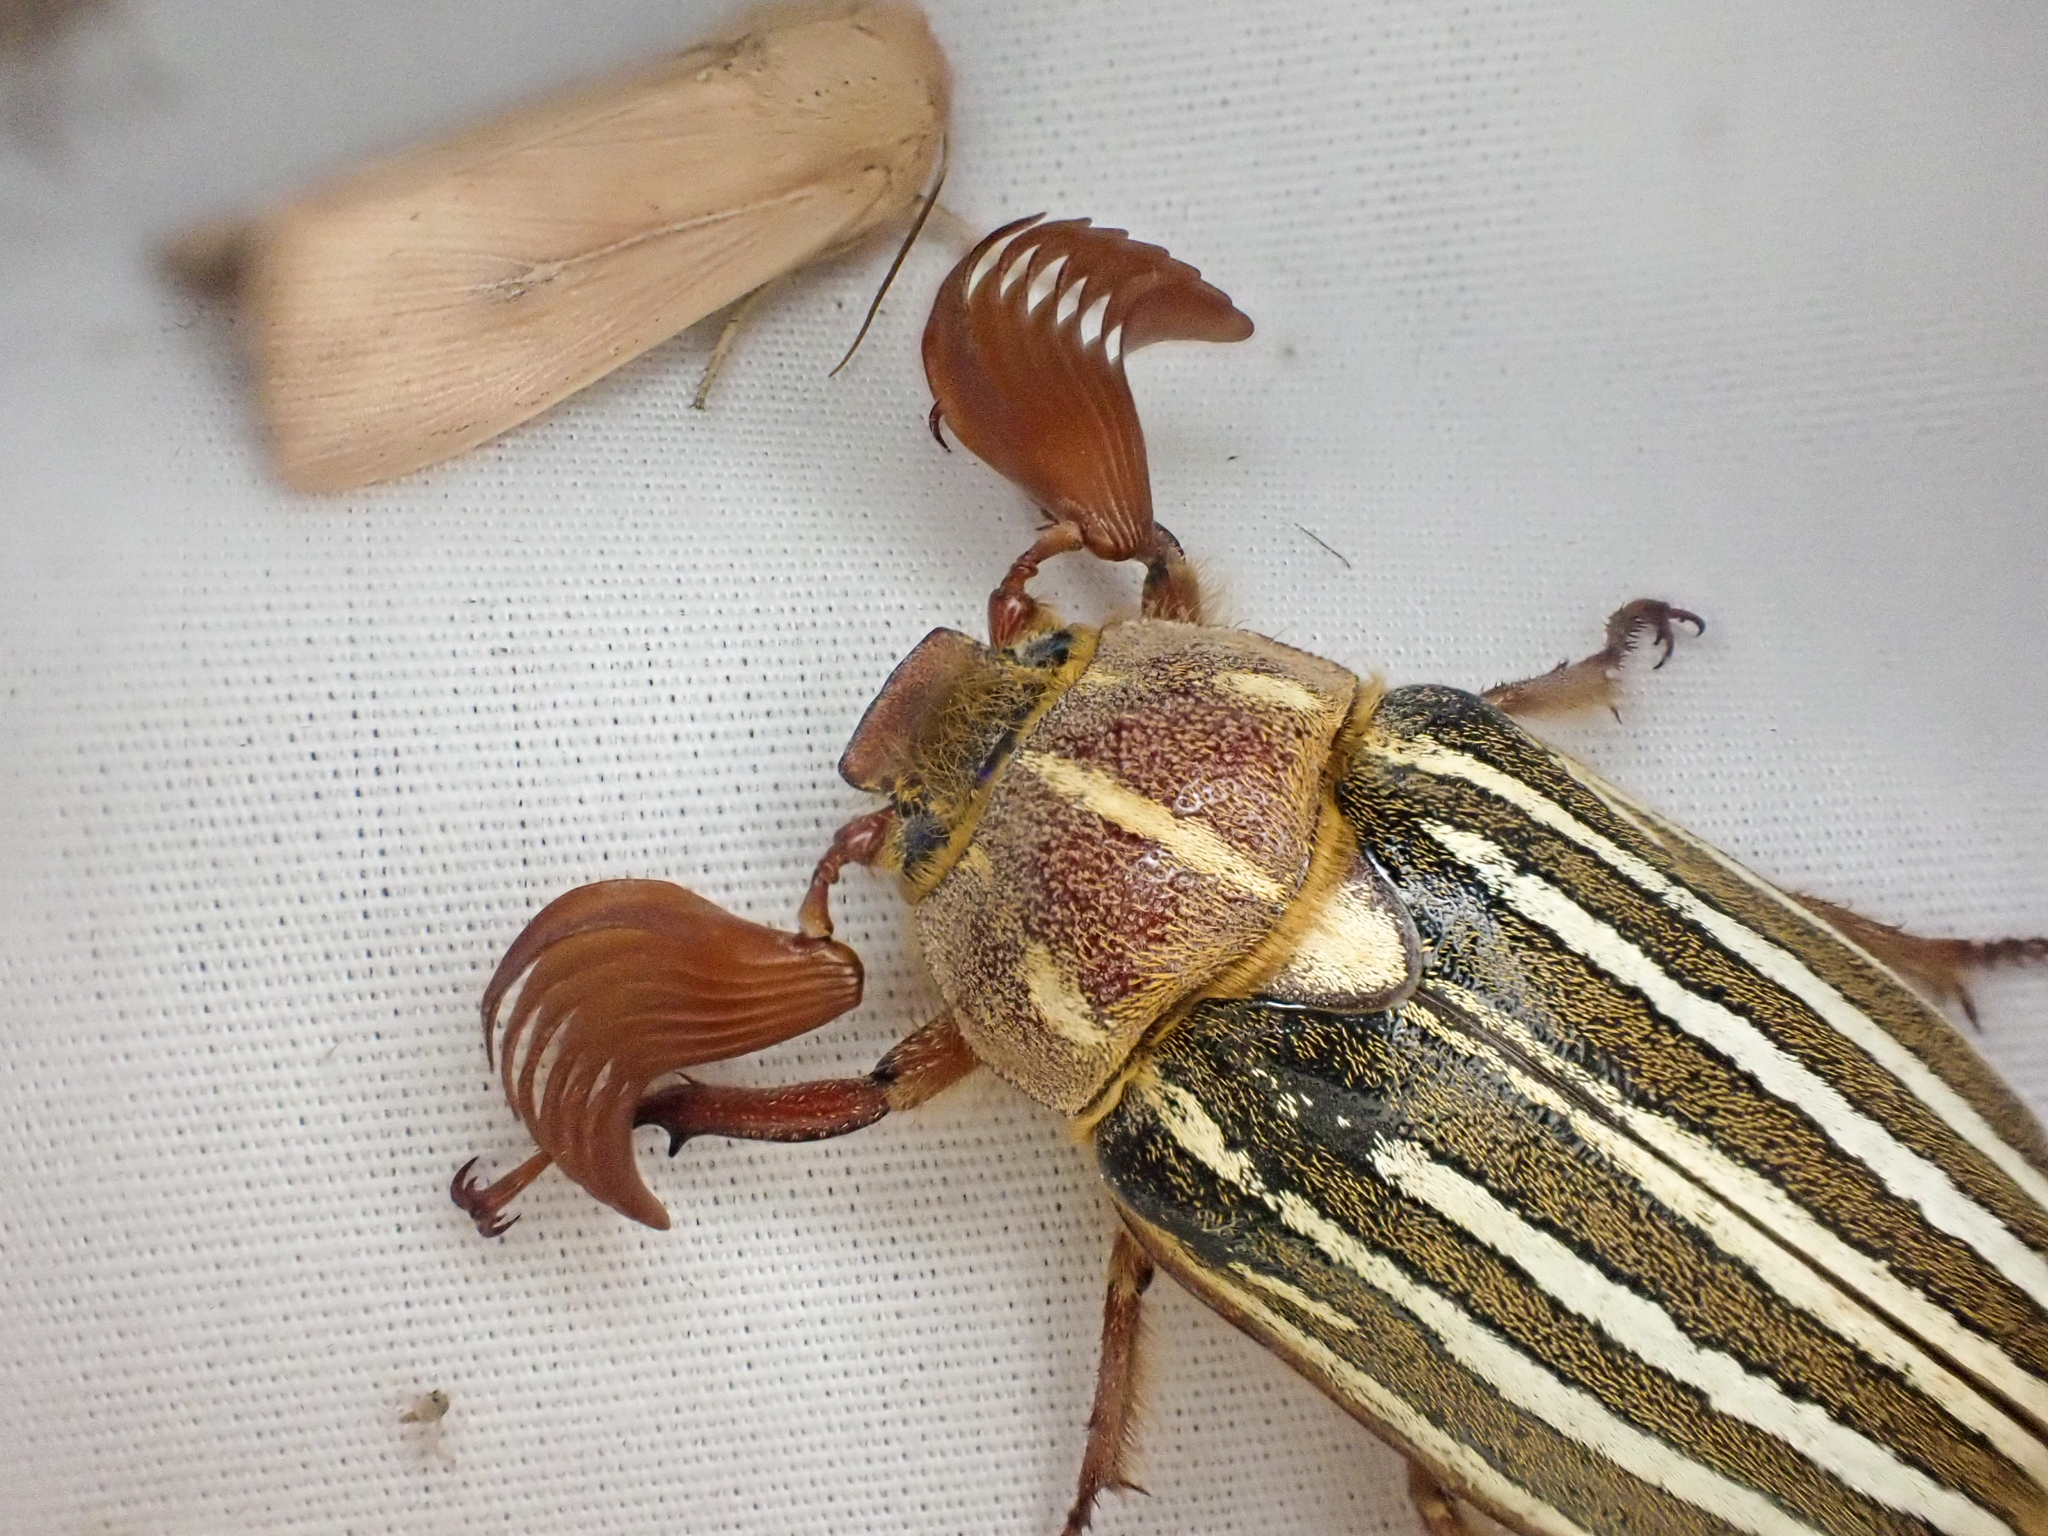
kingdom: Animalia
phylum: Arthropoda
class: Insecta
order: Coleoptera
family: Scarabaeidae
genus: Polyphylla
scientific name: Polyphylla crinita
